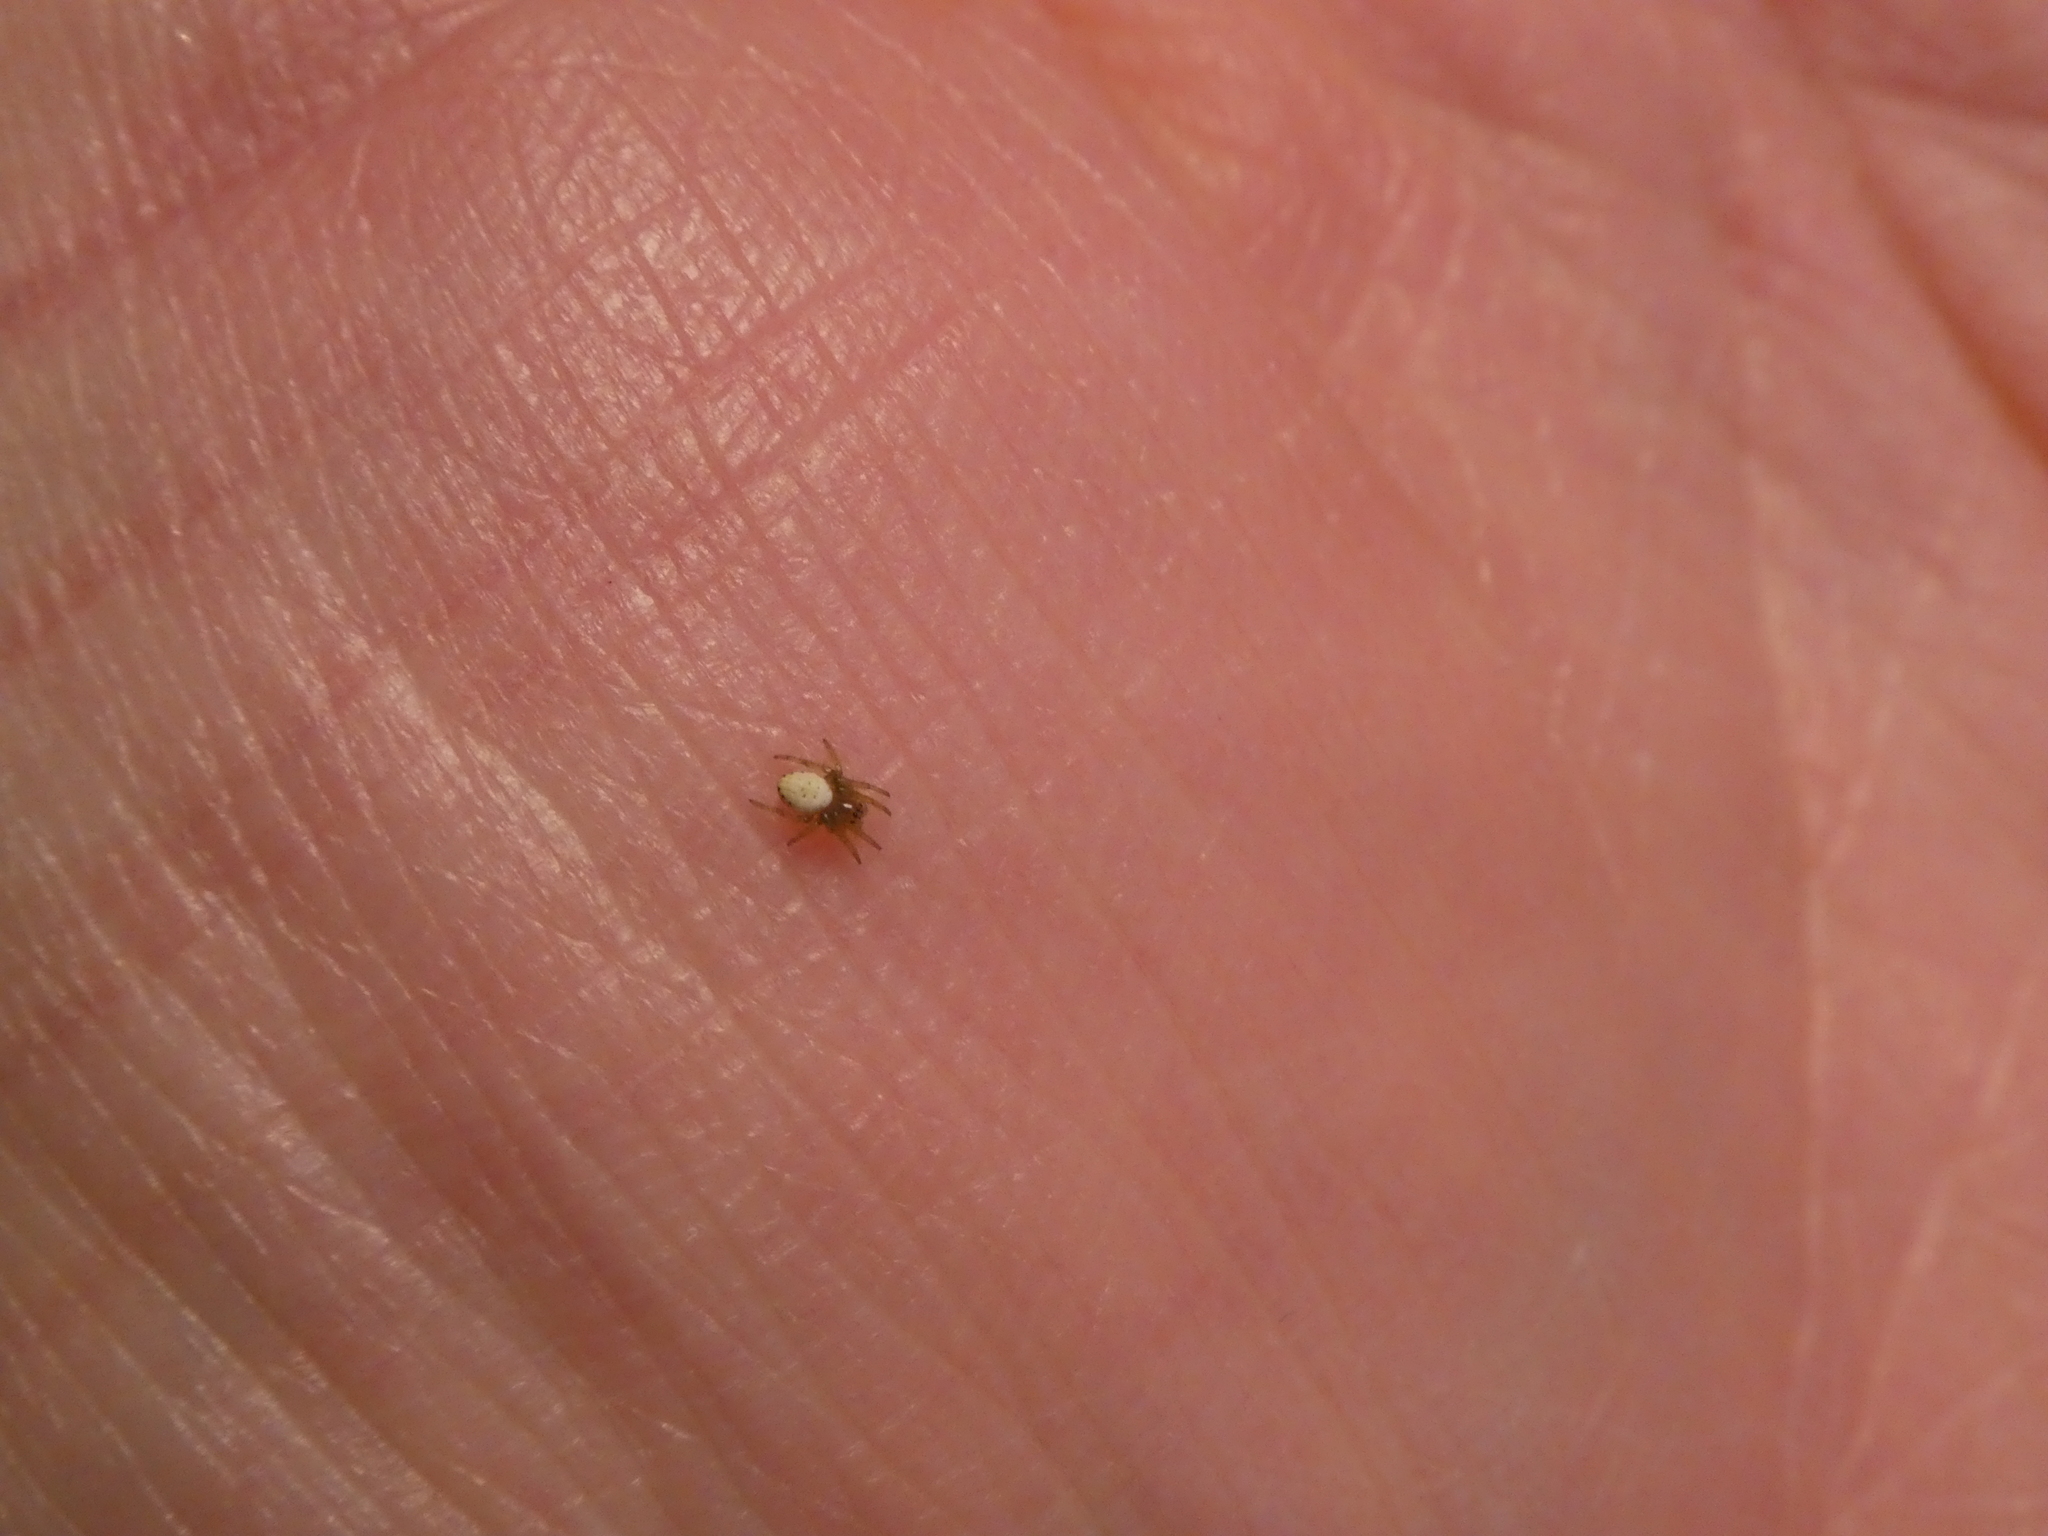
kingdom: Animalia
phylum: Arthropoda
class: Arachnida
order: Araneae
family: Araneidae
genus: Araniella
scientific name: Araniella displicata
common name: Sixspotted orb weaver
